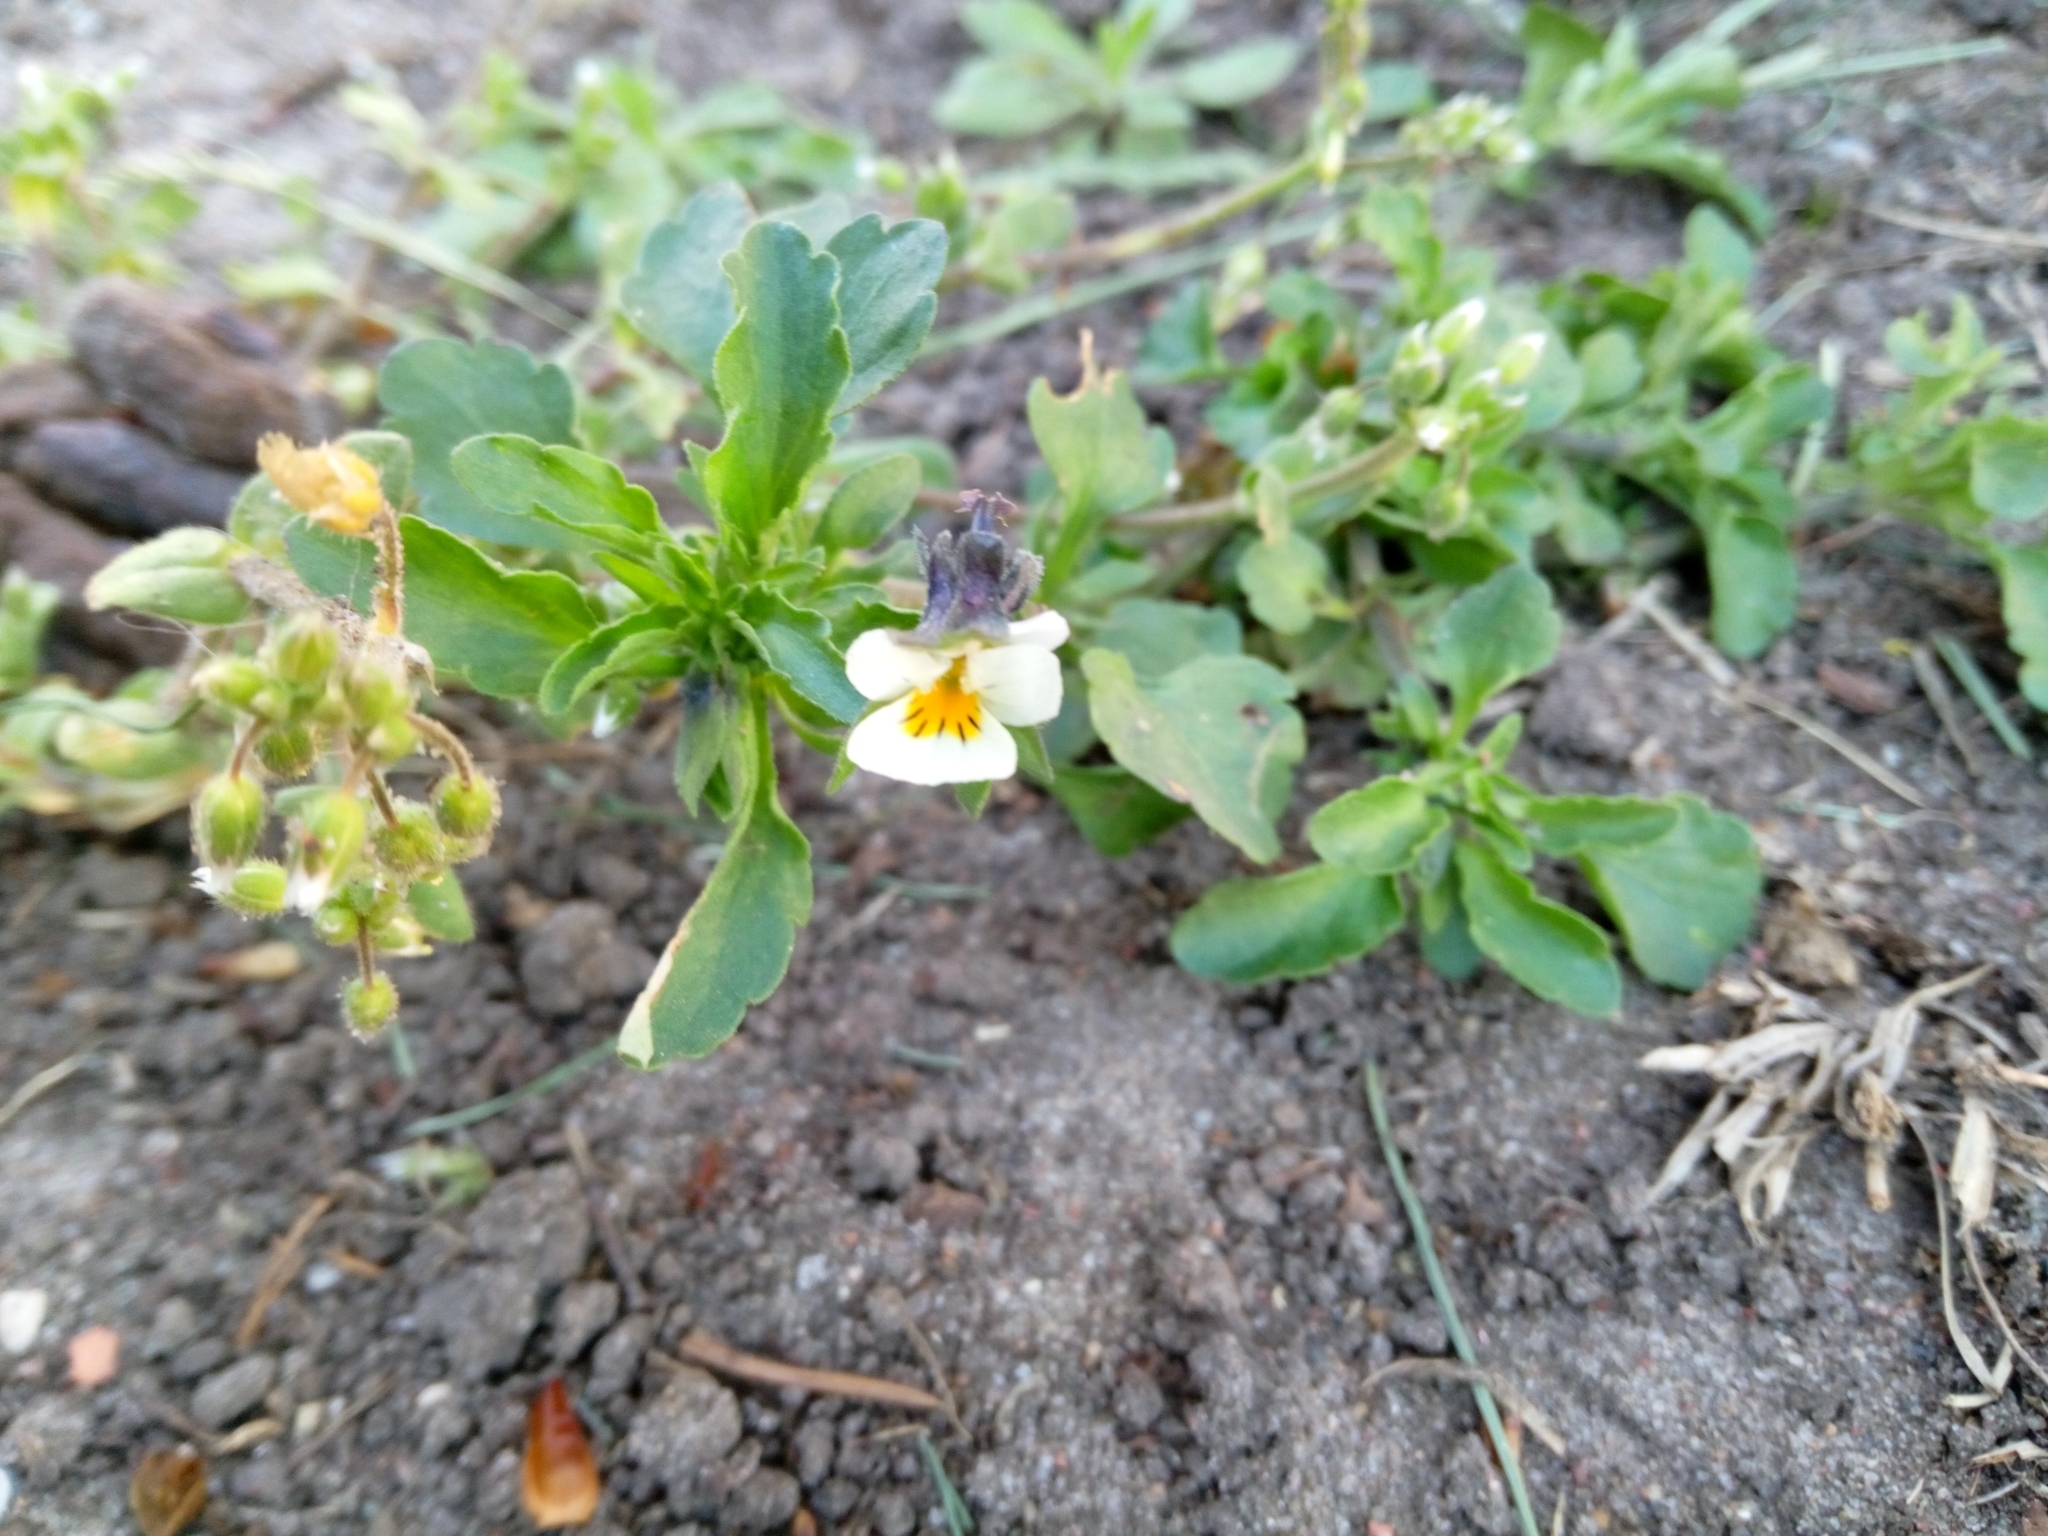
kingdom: Plantae
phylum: Tracheophyta
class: Magnoliopsida
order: Malpighiales
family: Violaceae
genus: Viola
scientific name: Viola arvensis
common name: Field pansy
